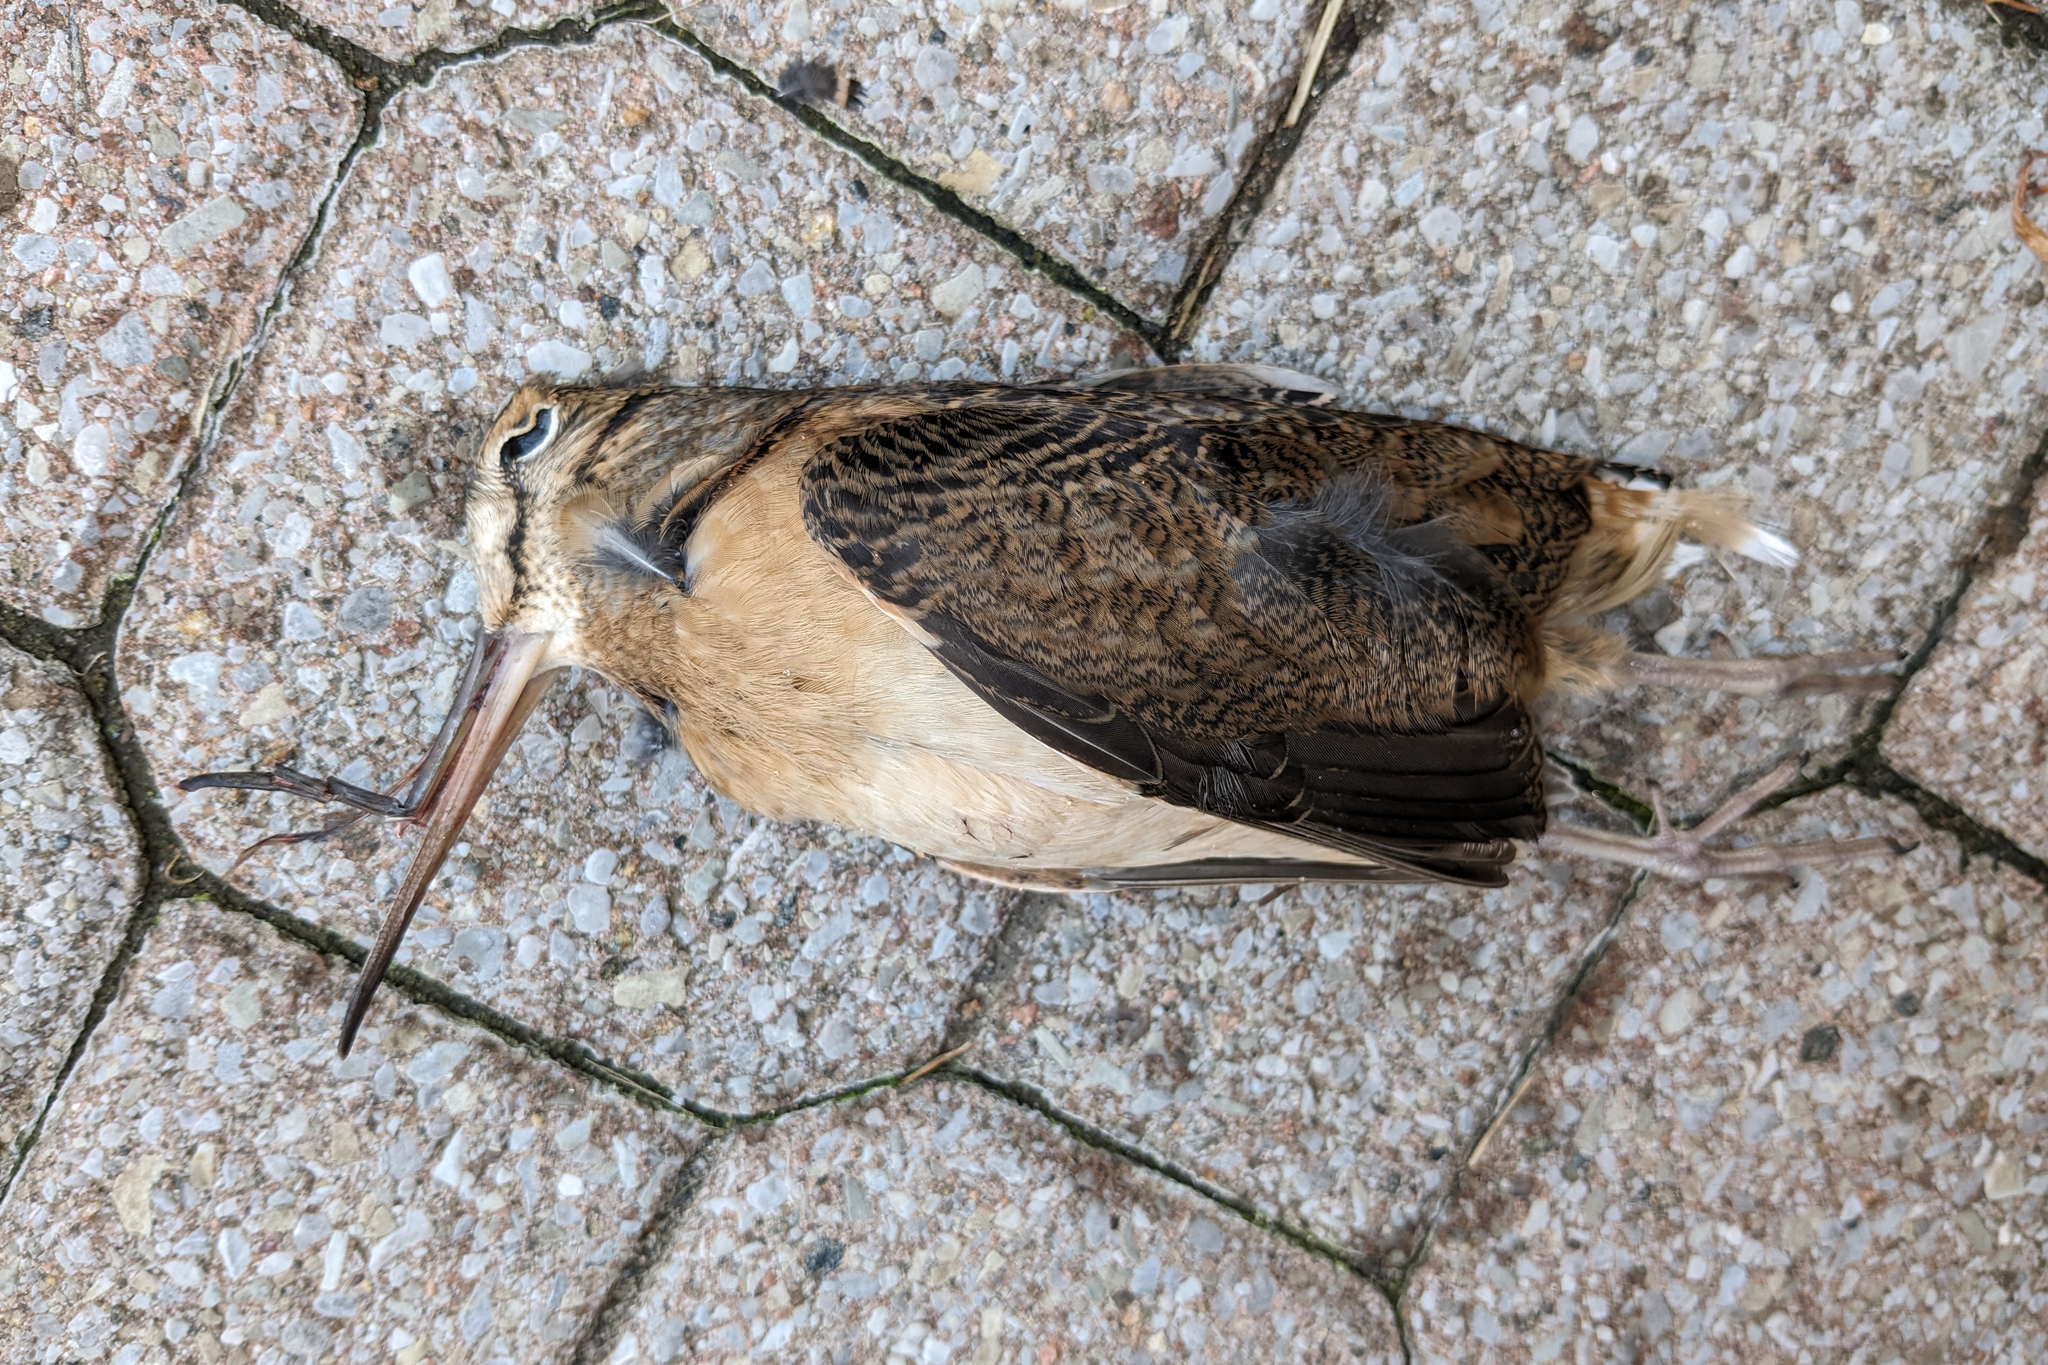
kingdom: Animalia
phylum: Chordata
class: Aves
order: Charadriiformes
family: Scolopacidae
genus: Scolopax
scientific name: Scolopax minor
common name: American woodcock
